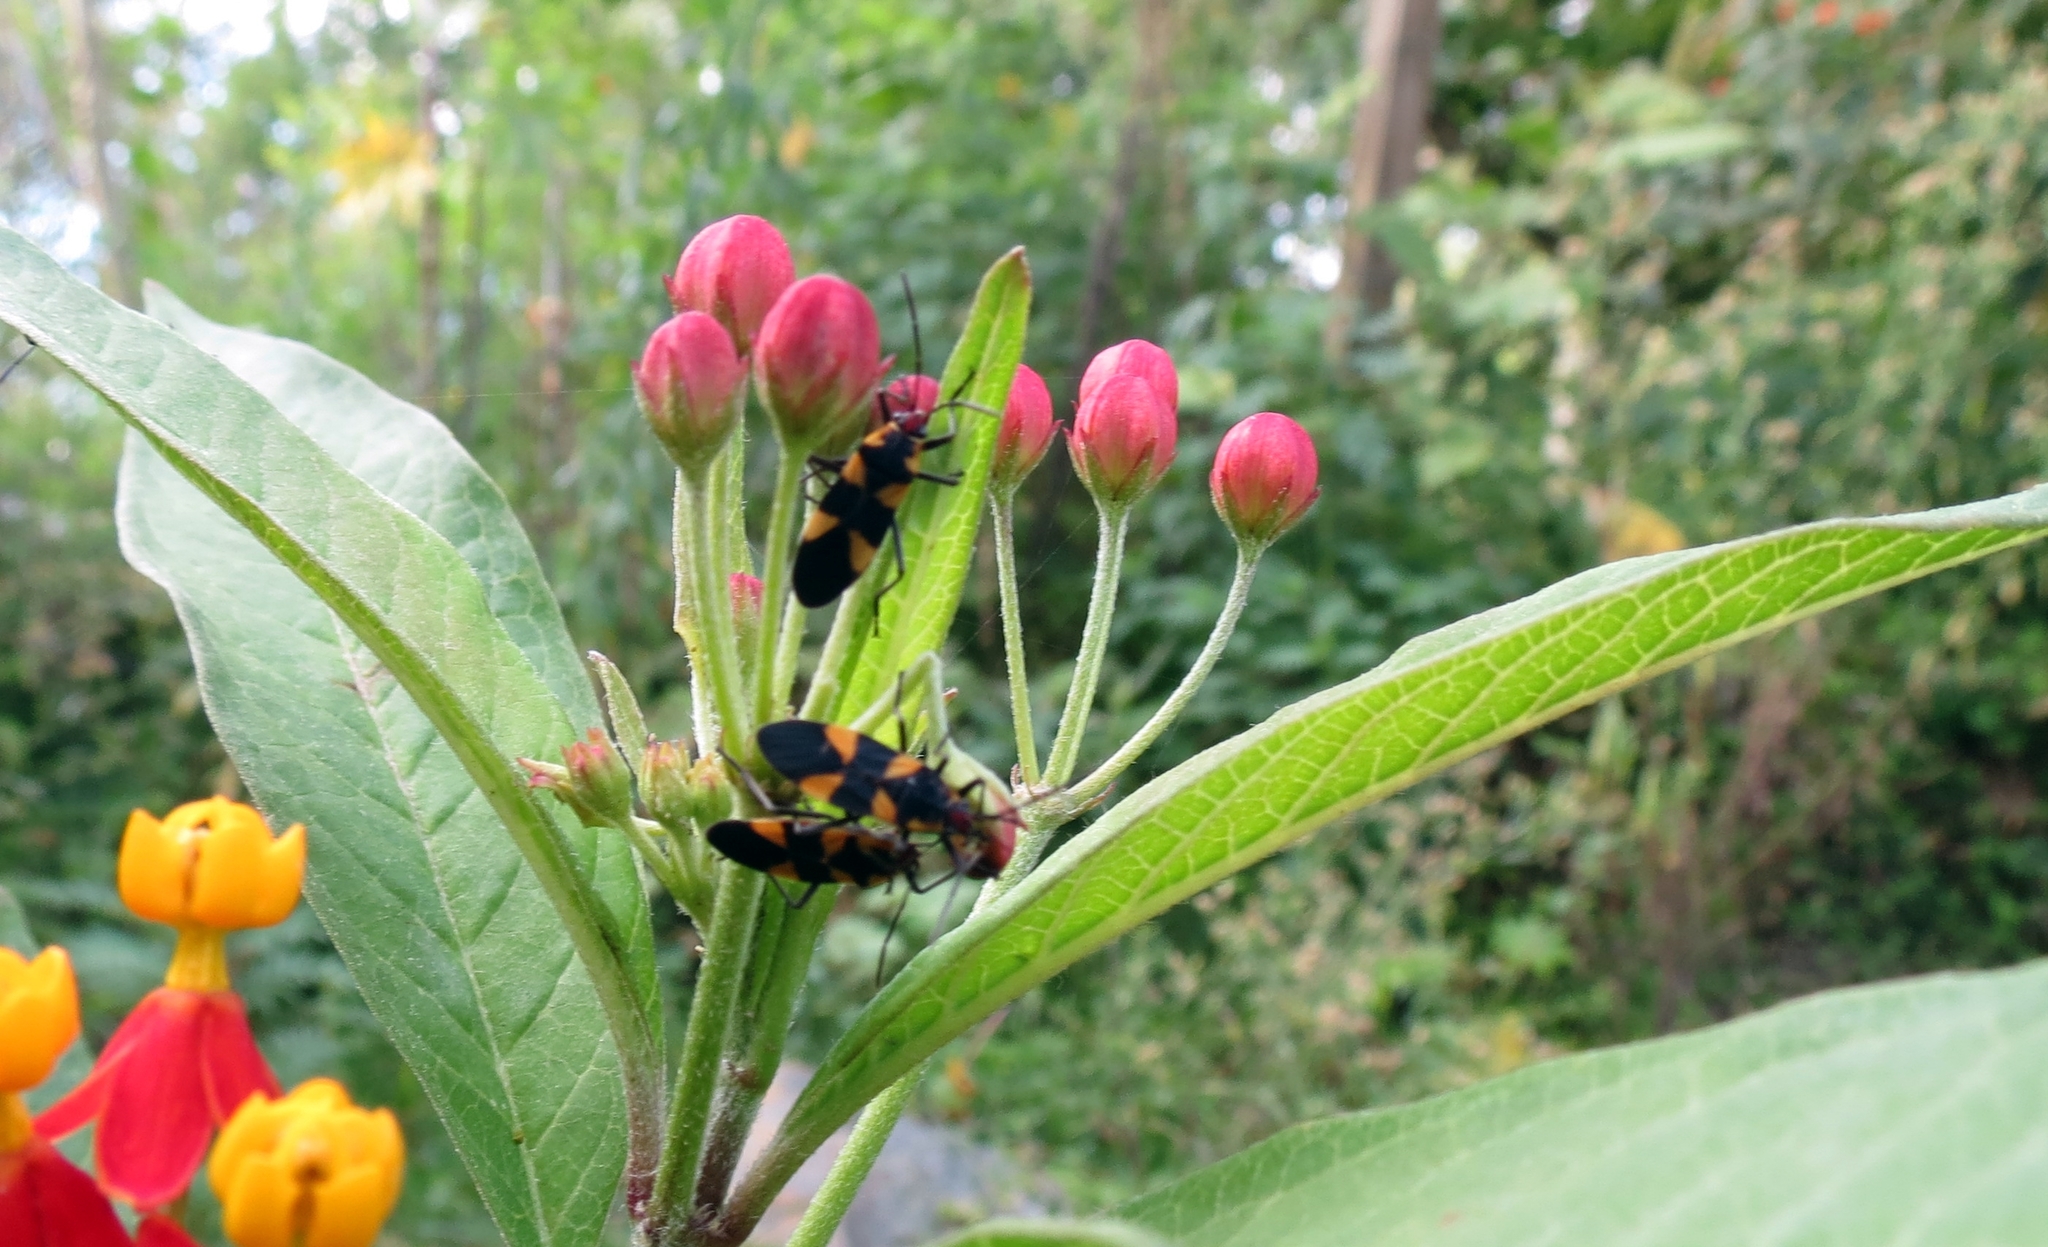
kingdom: Animalia
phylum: Arthropoda
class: Insecta
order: Hemiptera
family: Lygaeidae
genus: Oncopeltus
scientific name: Oncopeltus cingulifer
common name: Lygaeid bug
